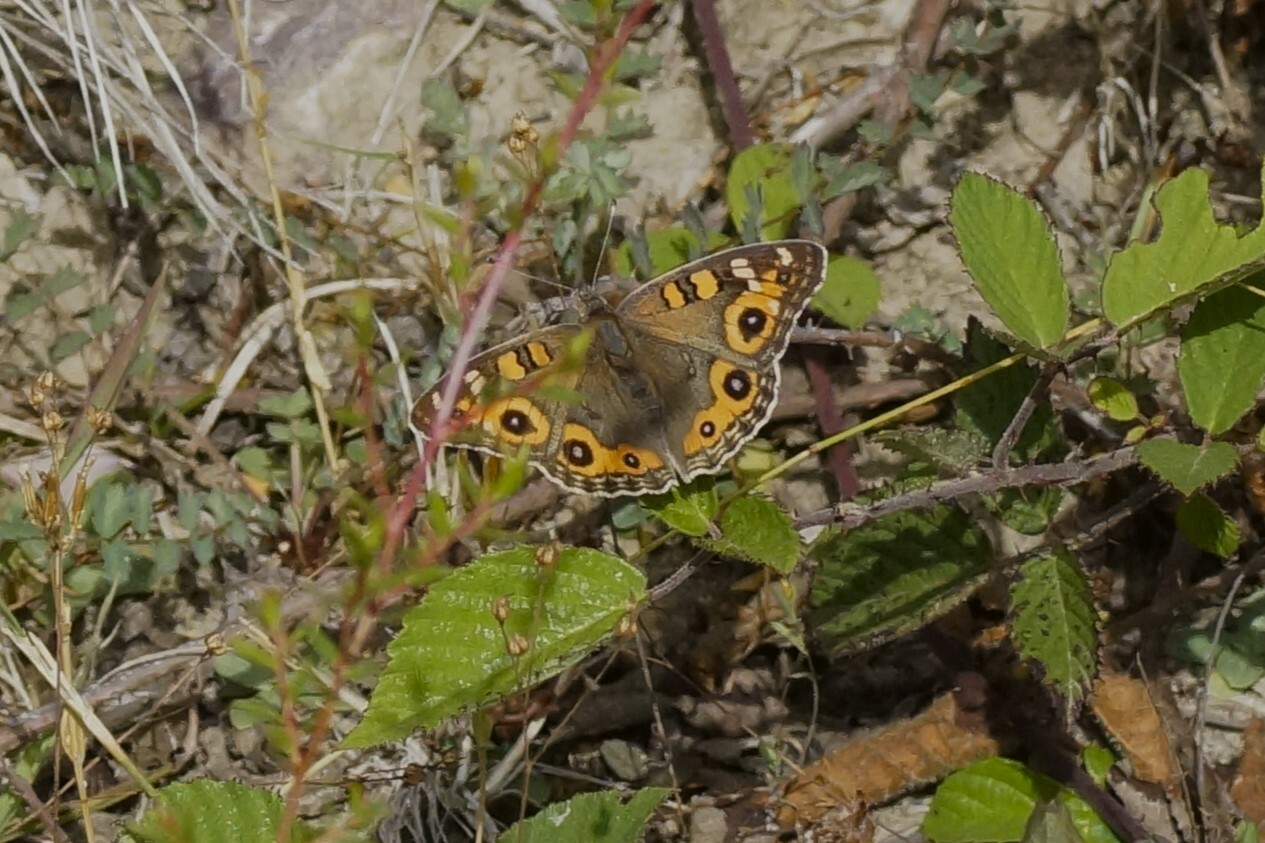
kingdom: Animalia
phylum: Arthropoda
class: Insecta
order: Lepidoptera
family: Nymphalidae
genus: Junonia
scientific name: Junonia villida
